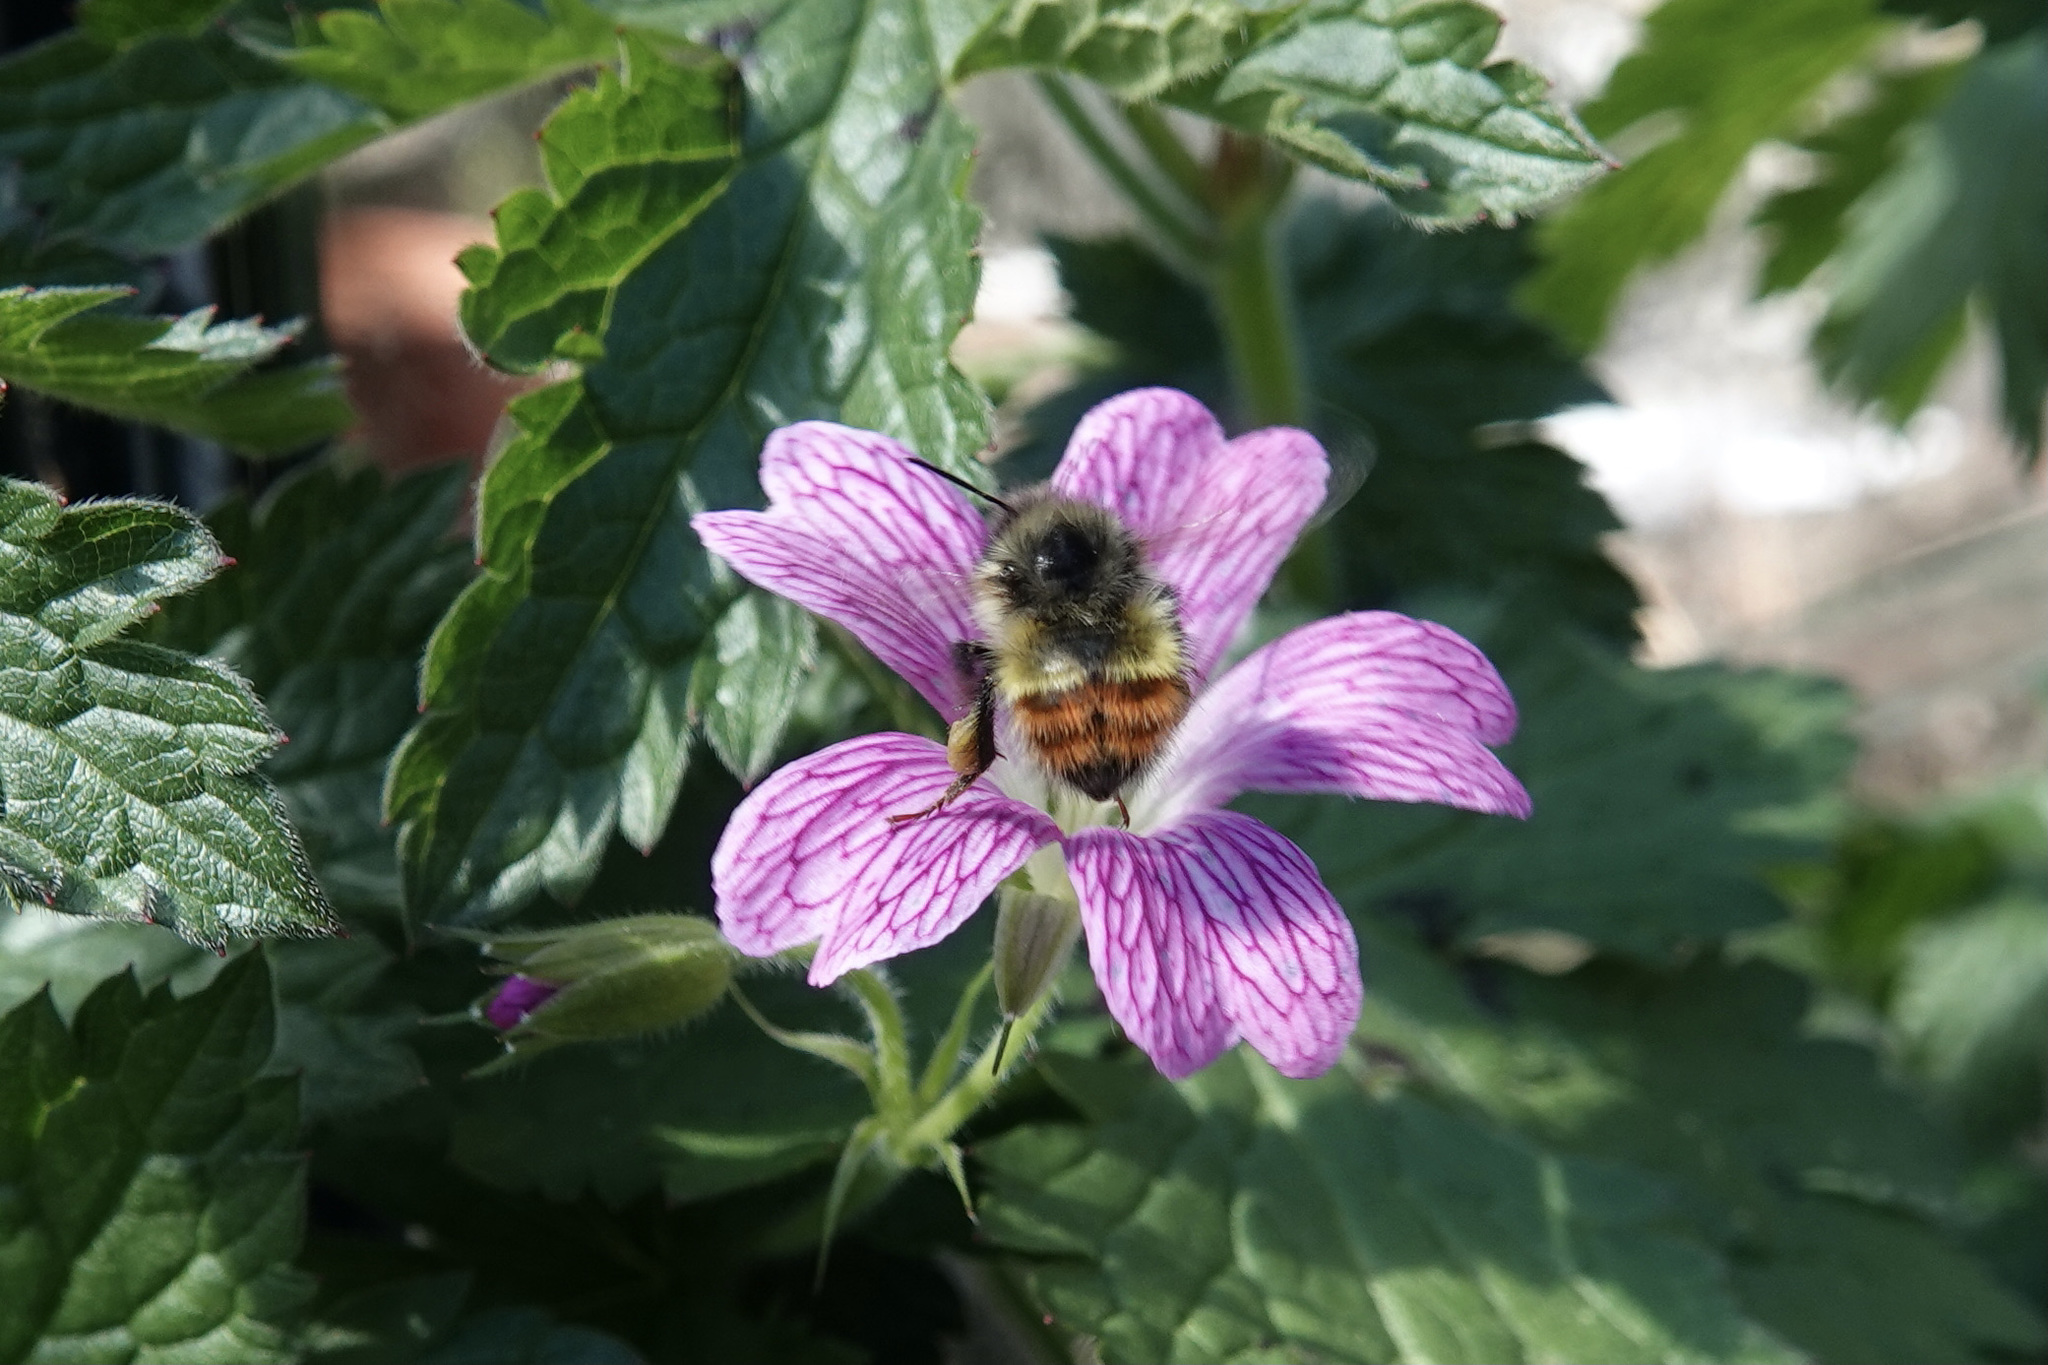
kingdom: Animalia
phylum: Arthropoda
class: Insecta
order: Hymenoptera
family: Apidae
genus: Bombus
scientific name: Bombus flavifrons
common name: Yellow head bumble bee
